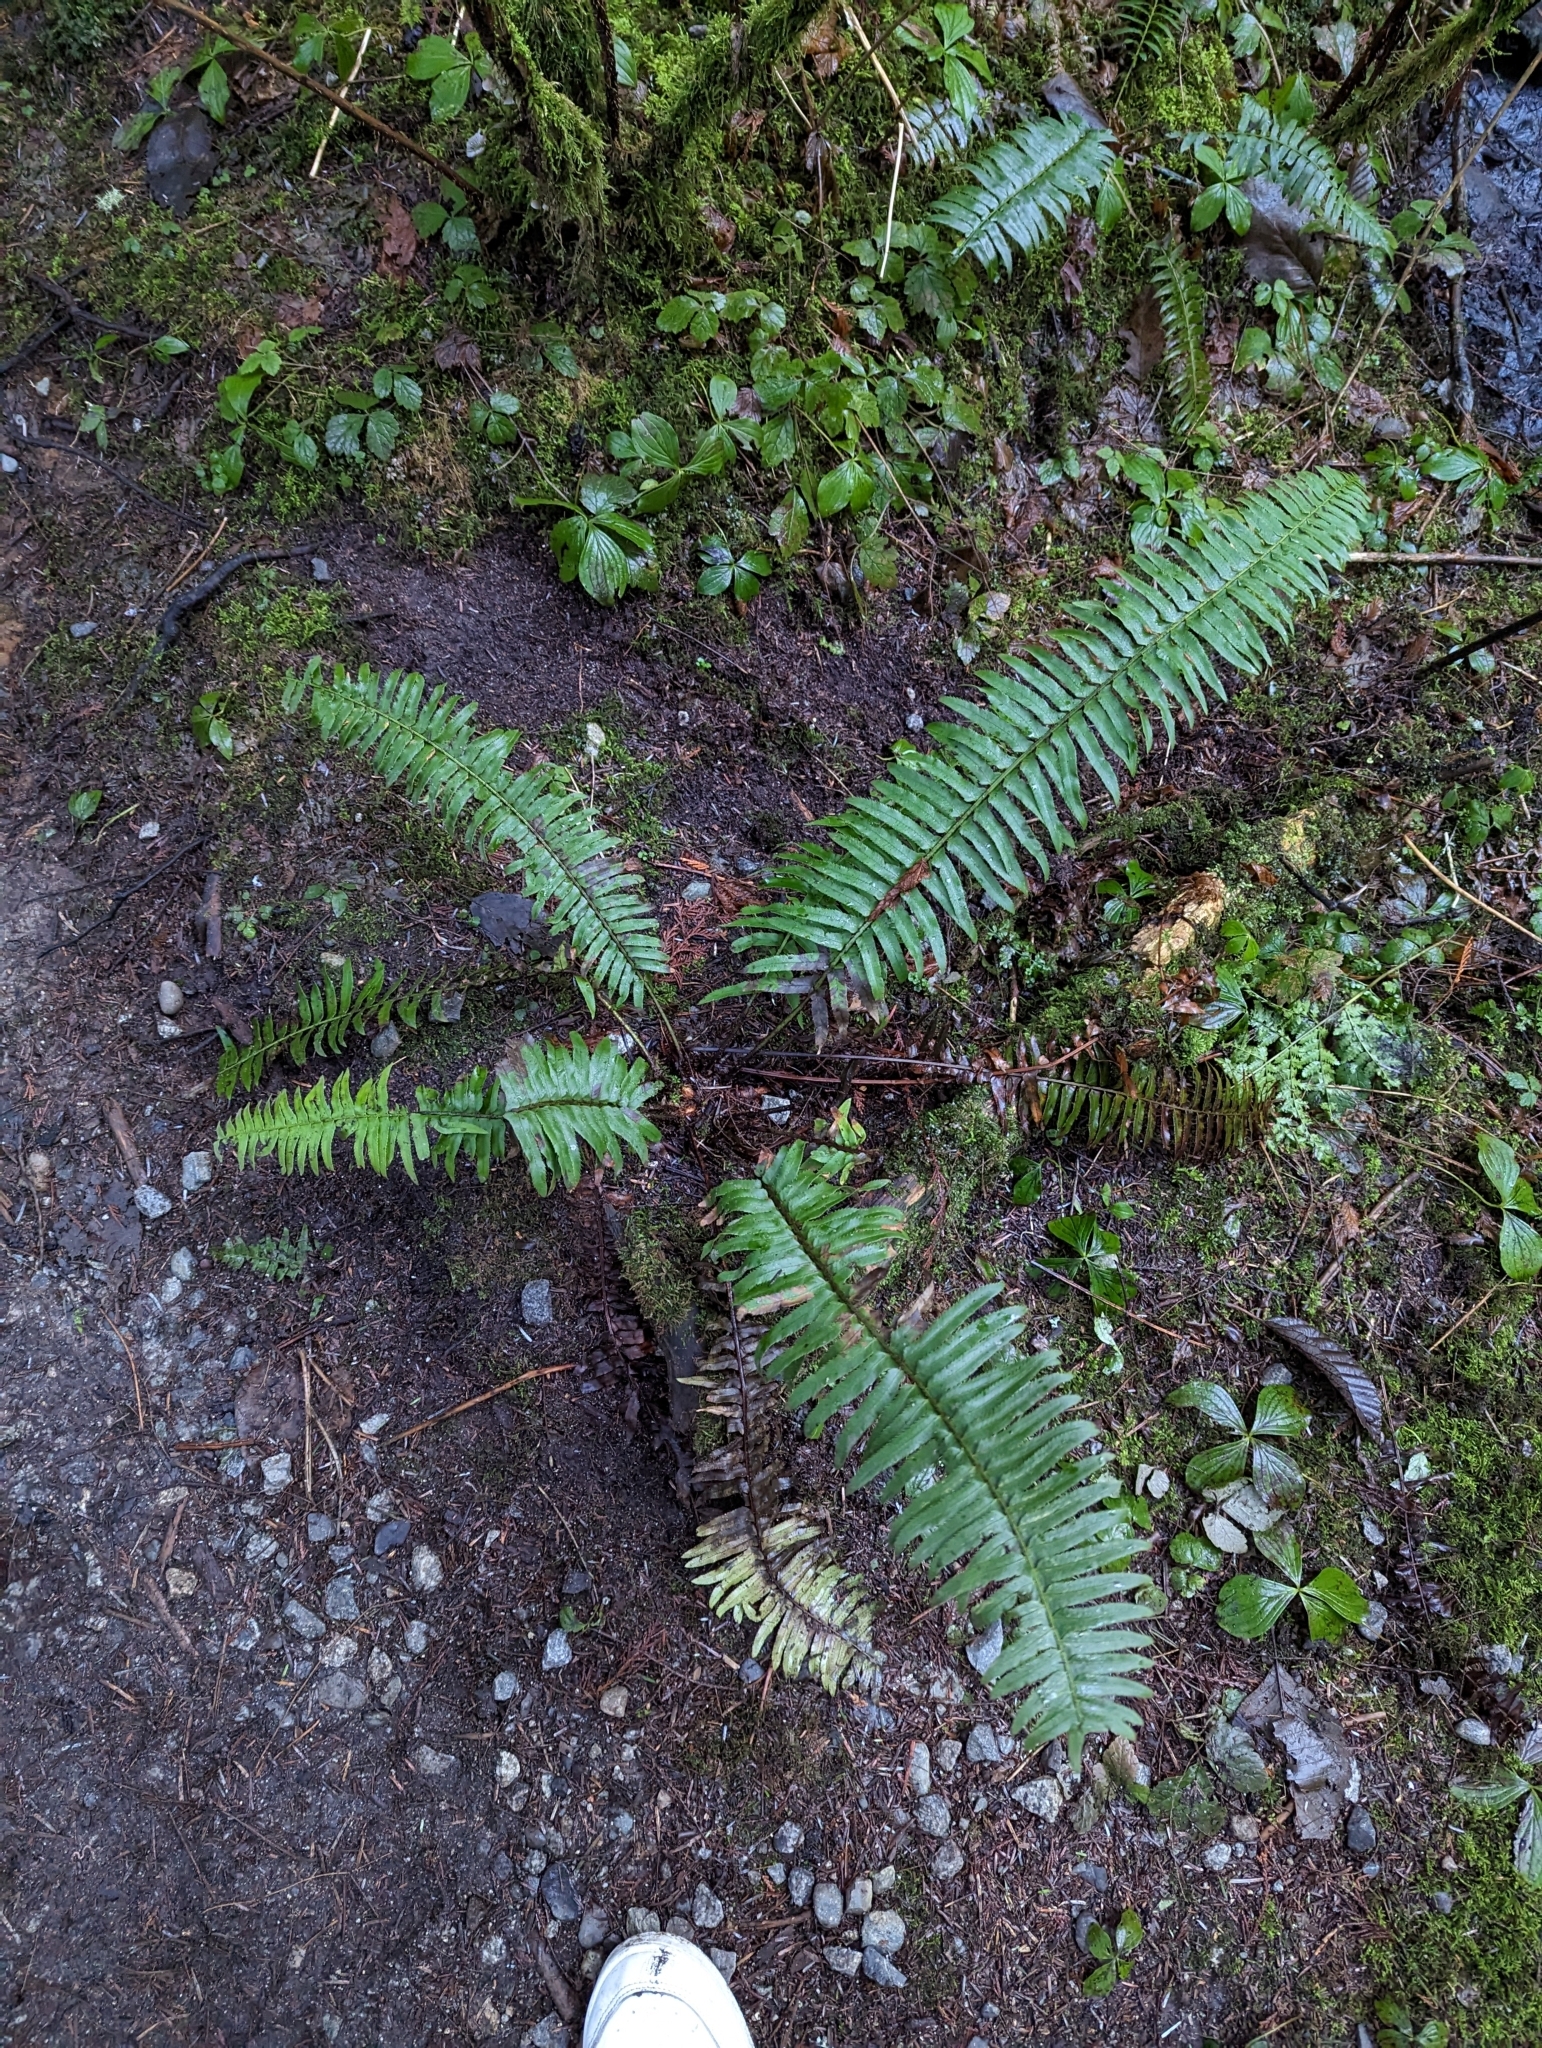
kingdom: Plantae
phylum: Tracheophyta
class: Polypodiopsida
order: Polypodiales
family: Dryopteridaceae
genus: Polystichum
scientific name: Polystichum munitum
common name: Western sword-fern
